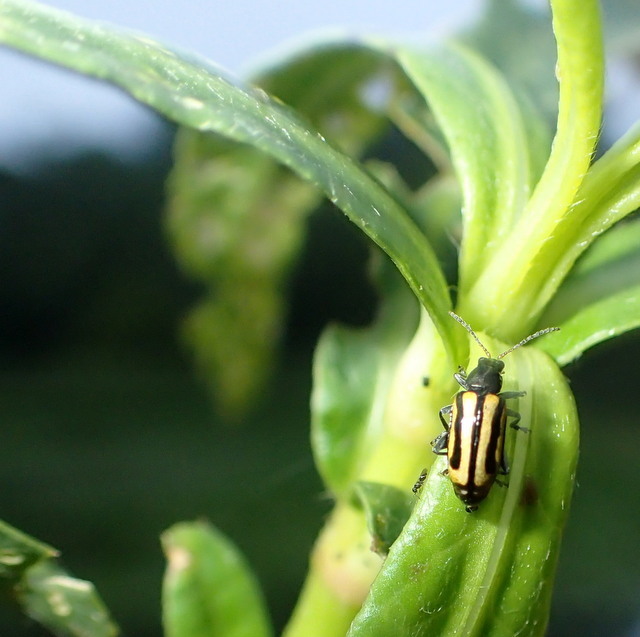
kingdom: Animalia
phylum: Arthropoda
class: Insecta
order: Coleoptera
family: Chrysomelidae
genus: Agasicles
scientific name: Agasicles hygrophila
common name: Alligatorweed flea beetle
